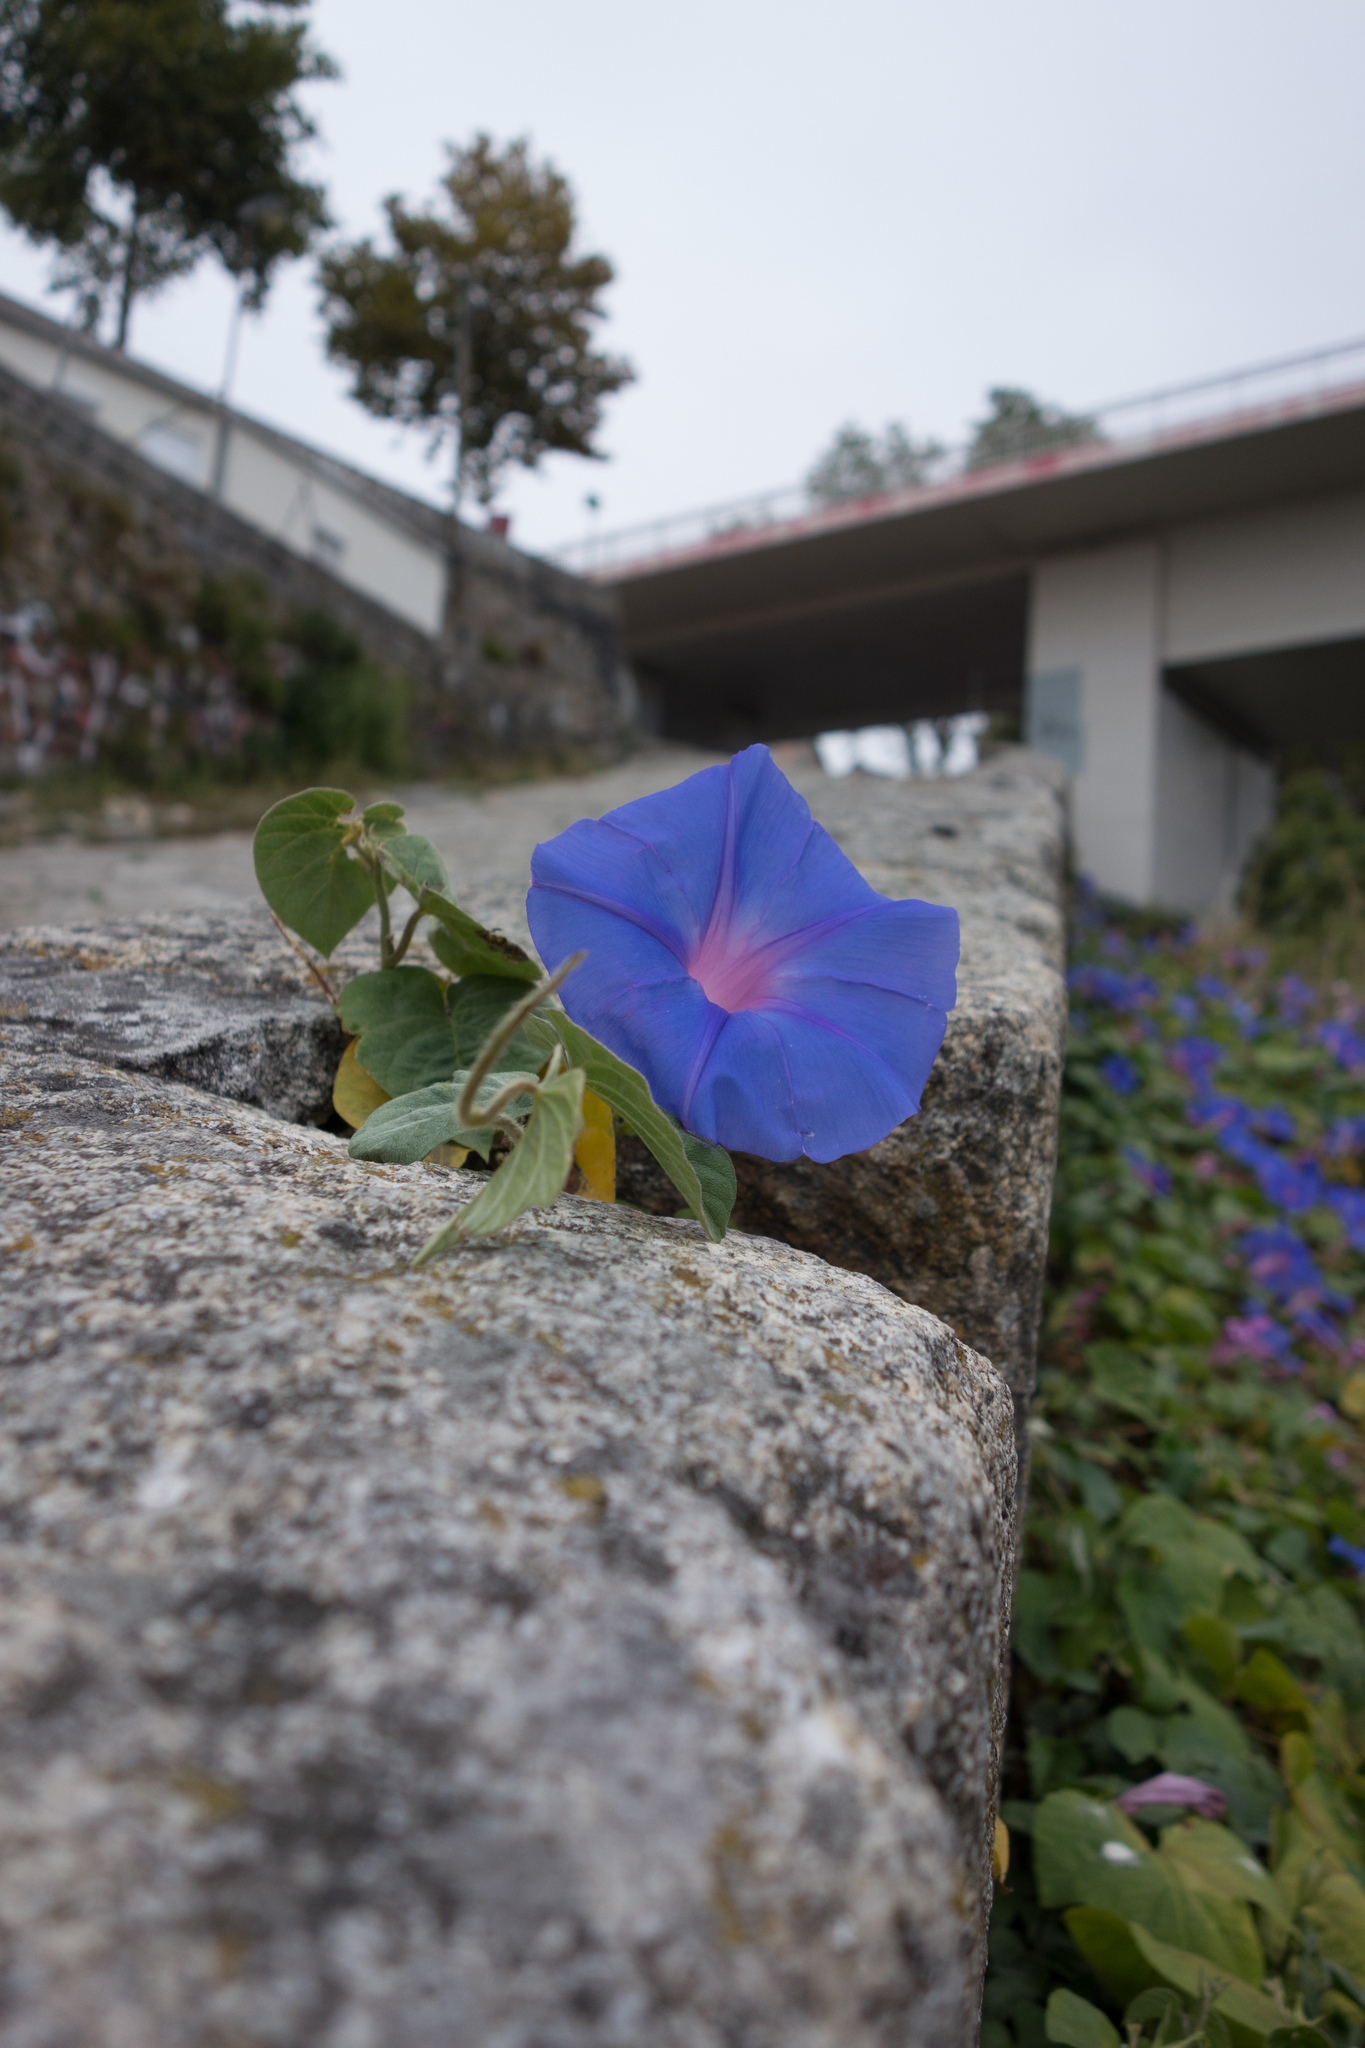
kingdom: Plantae
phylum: Tracheophyta
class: Magnoliopsida
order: Solanales
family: Convolvulaceae
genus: Ipomoea
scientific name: Ipomoea indica
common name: Blue dawnflower
